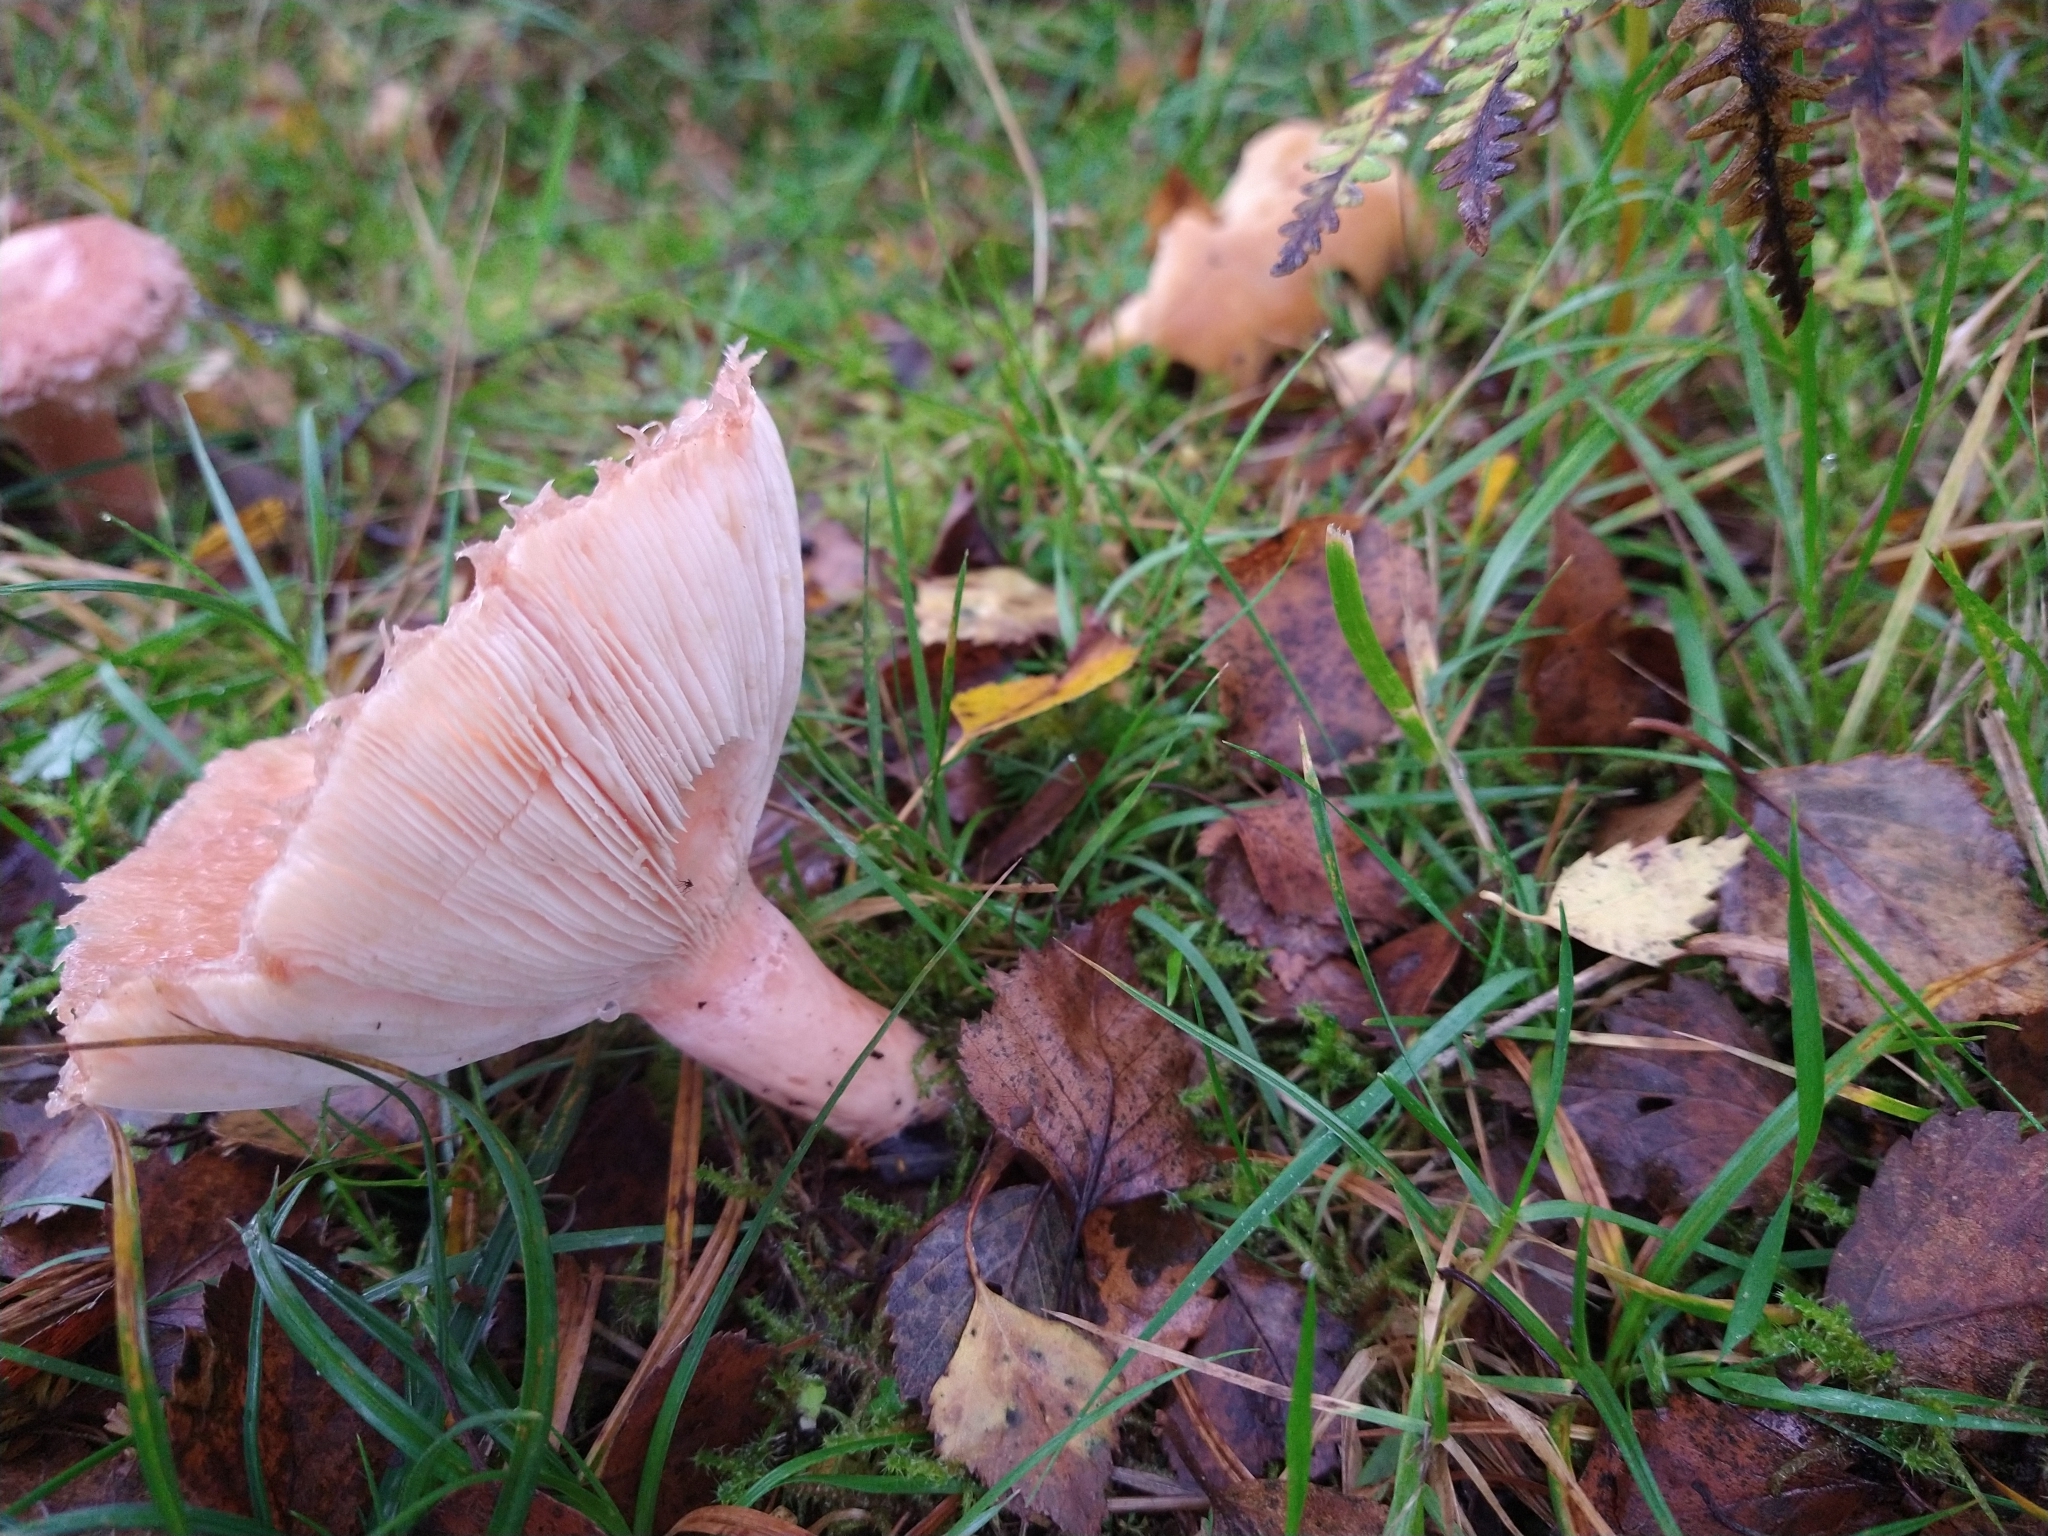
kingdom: Fungi
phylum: Basidiomycota
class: Agaricomycetes
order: Russulales
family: Russulaceae
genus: Lactarius
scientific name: Lactarius torminosus
